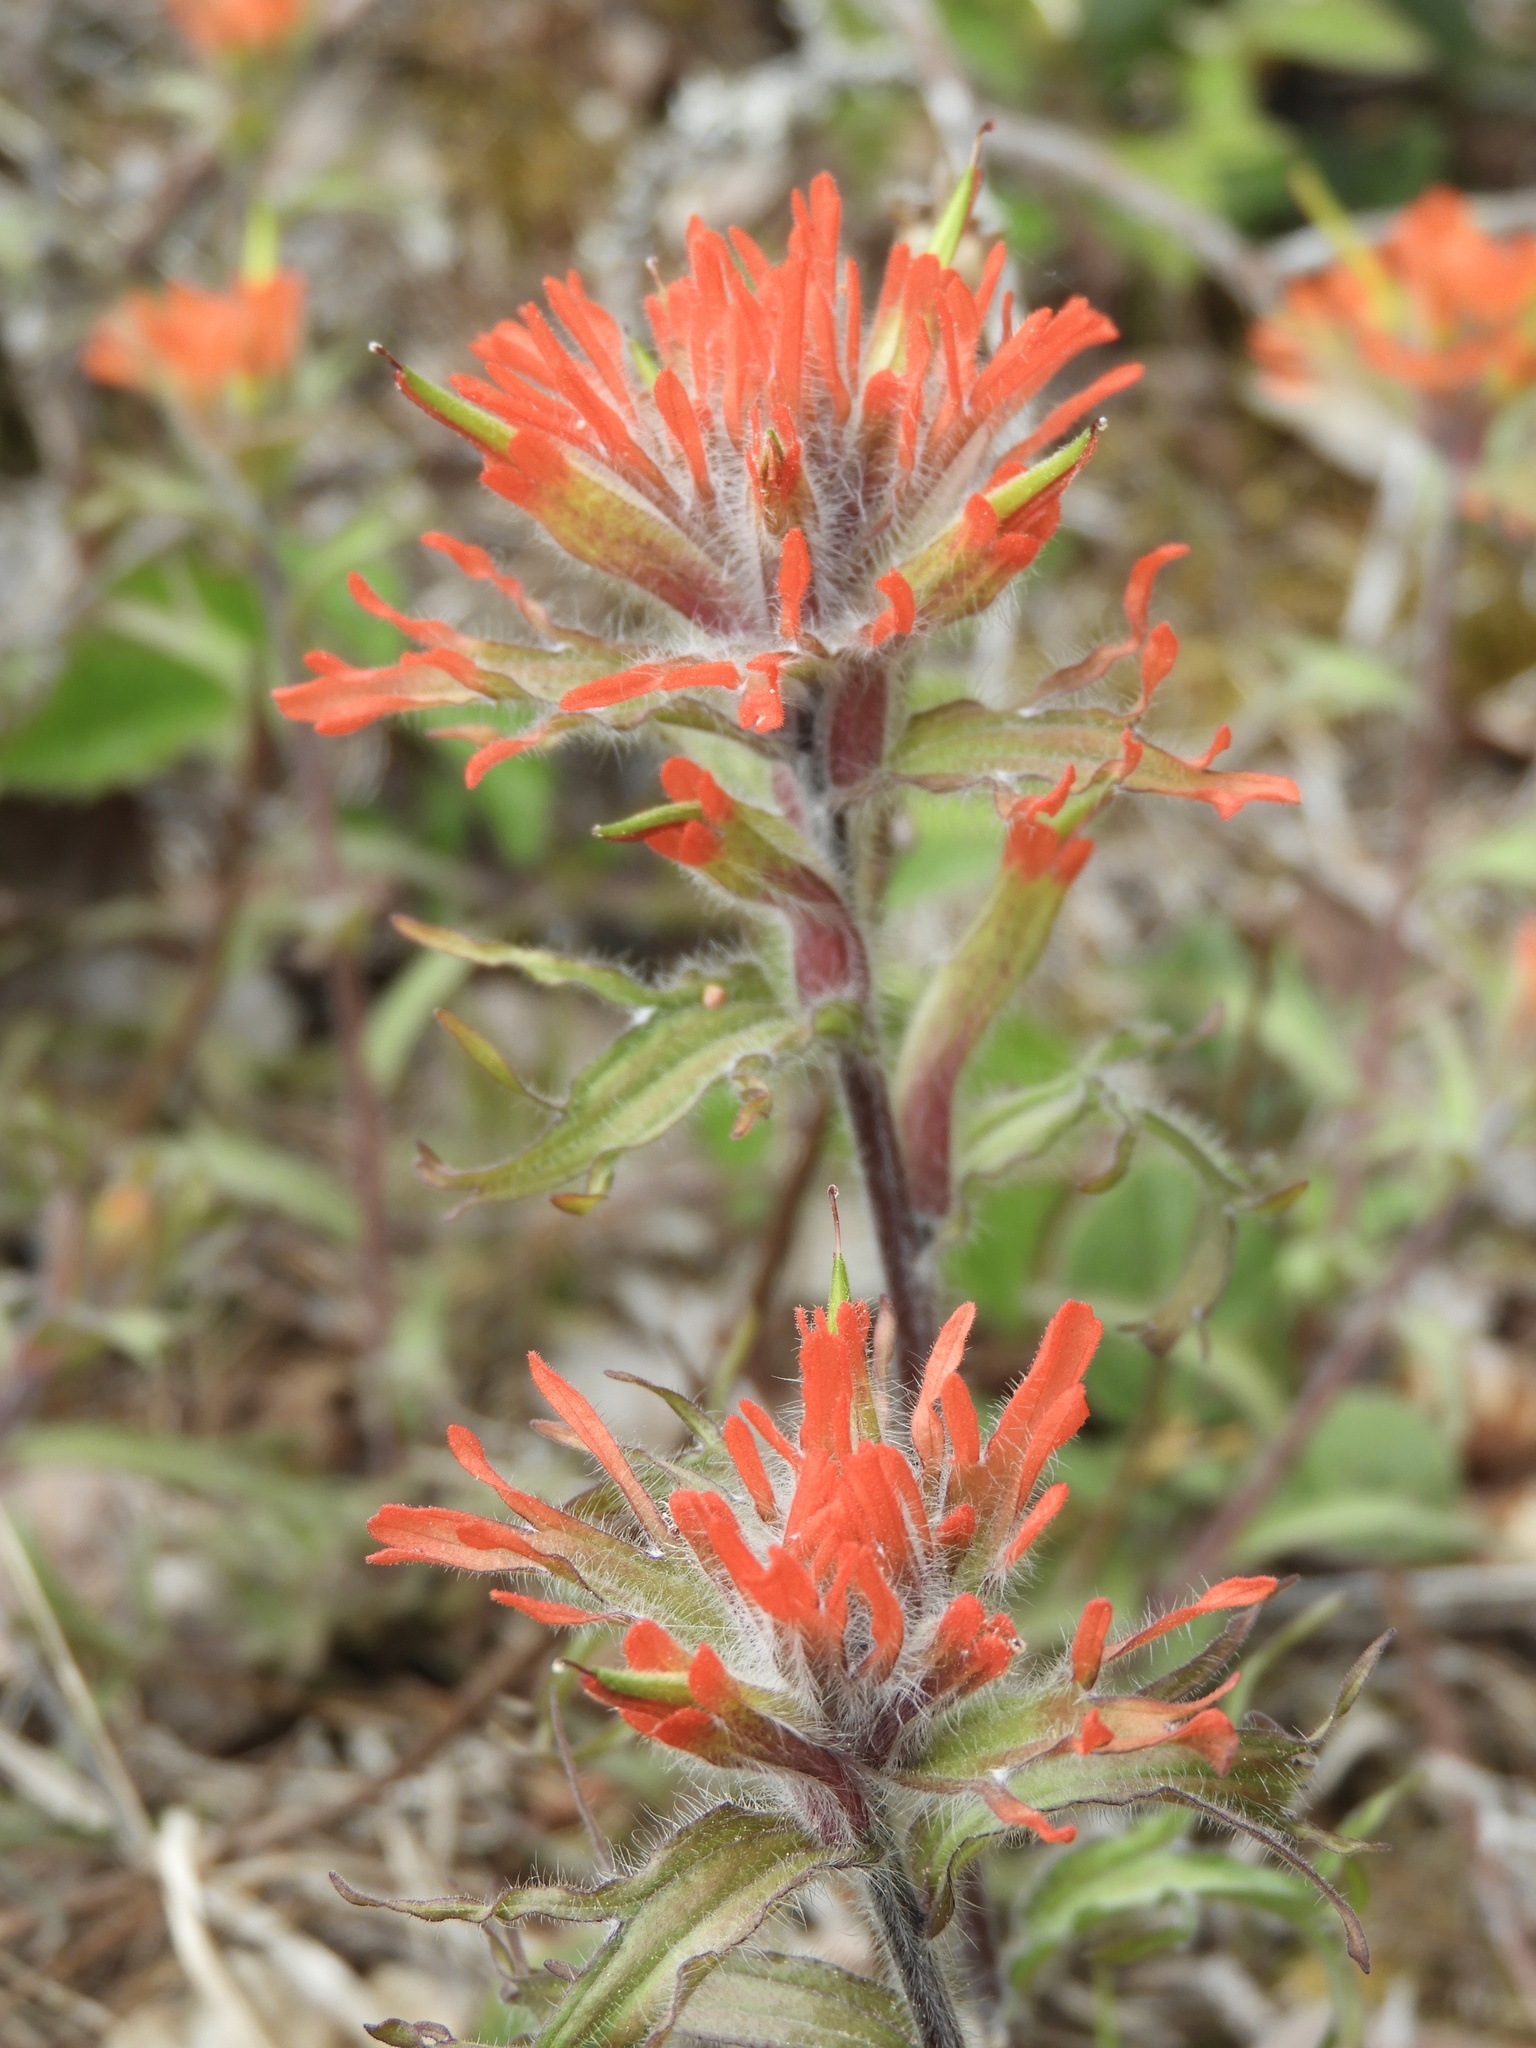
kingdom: Plantae
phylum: Tracheophyta
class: Magnoliopsida
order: Lamiales
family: Orobanchaceae
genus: Castilleja
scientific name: Castilleja hispida
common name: Bristly paintbrush
